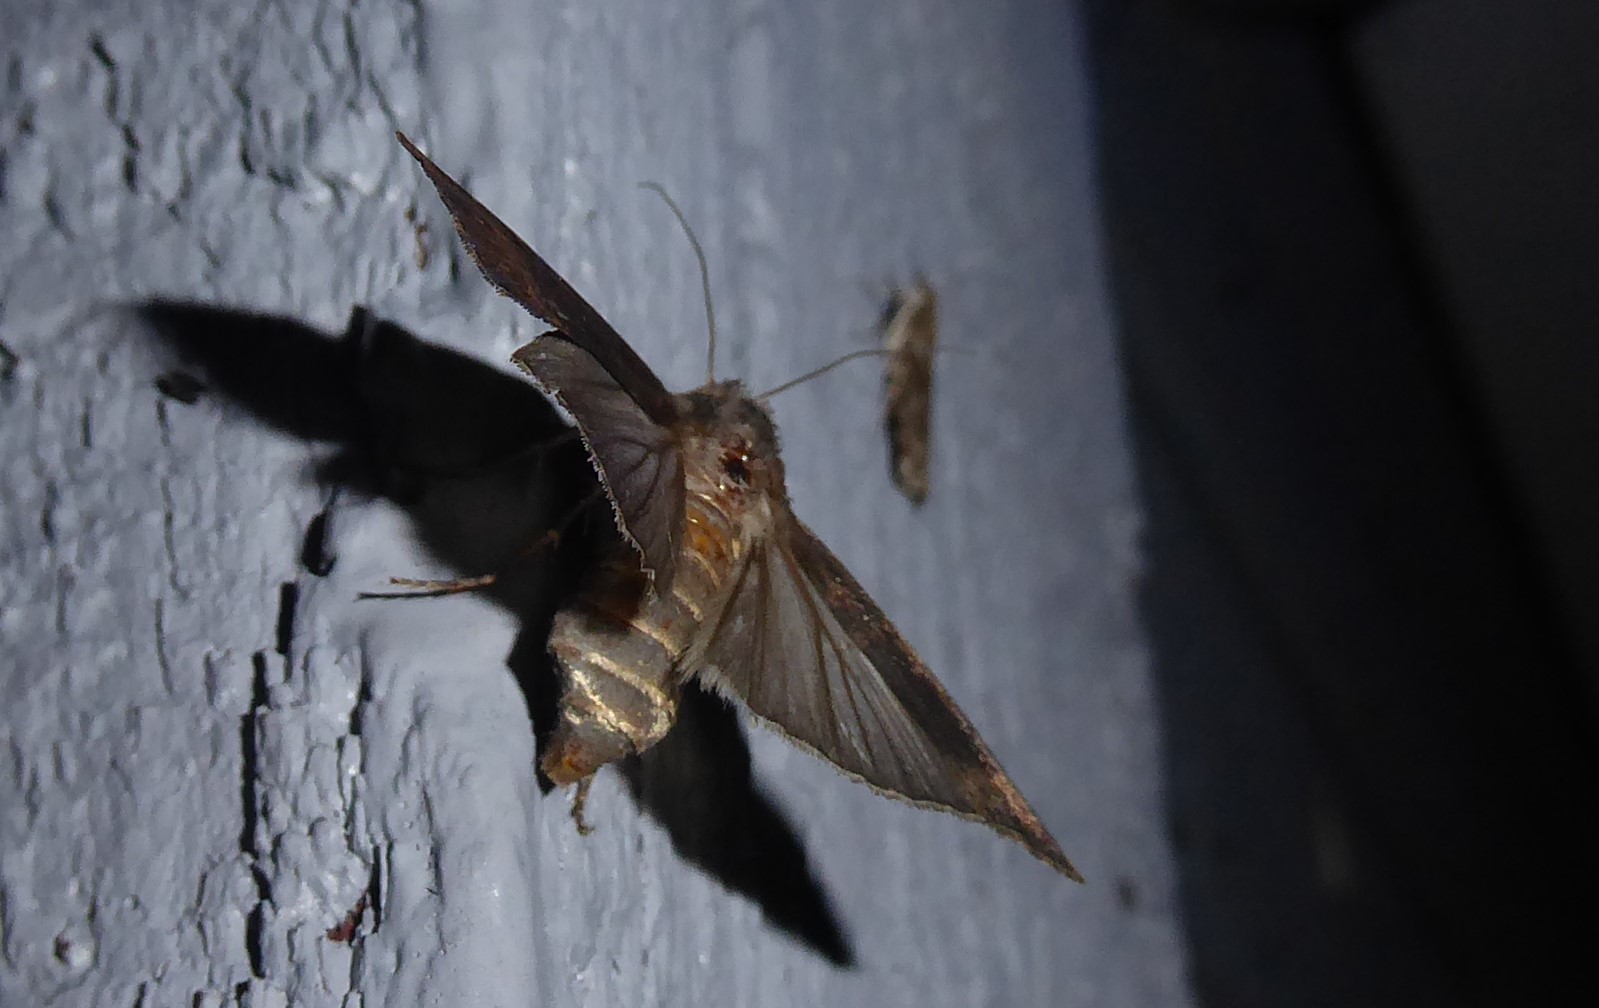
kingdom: Animalia
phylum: Arthropoda
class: Insecta
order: Lepidoptera
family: Noctuidae
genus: Agrotis
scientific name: Agrotis ipsilon
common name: Dark sword-grass
